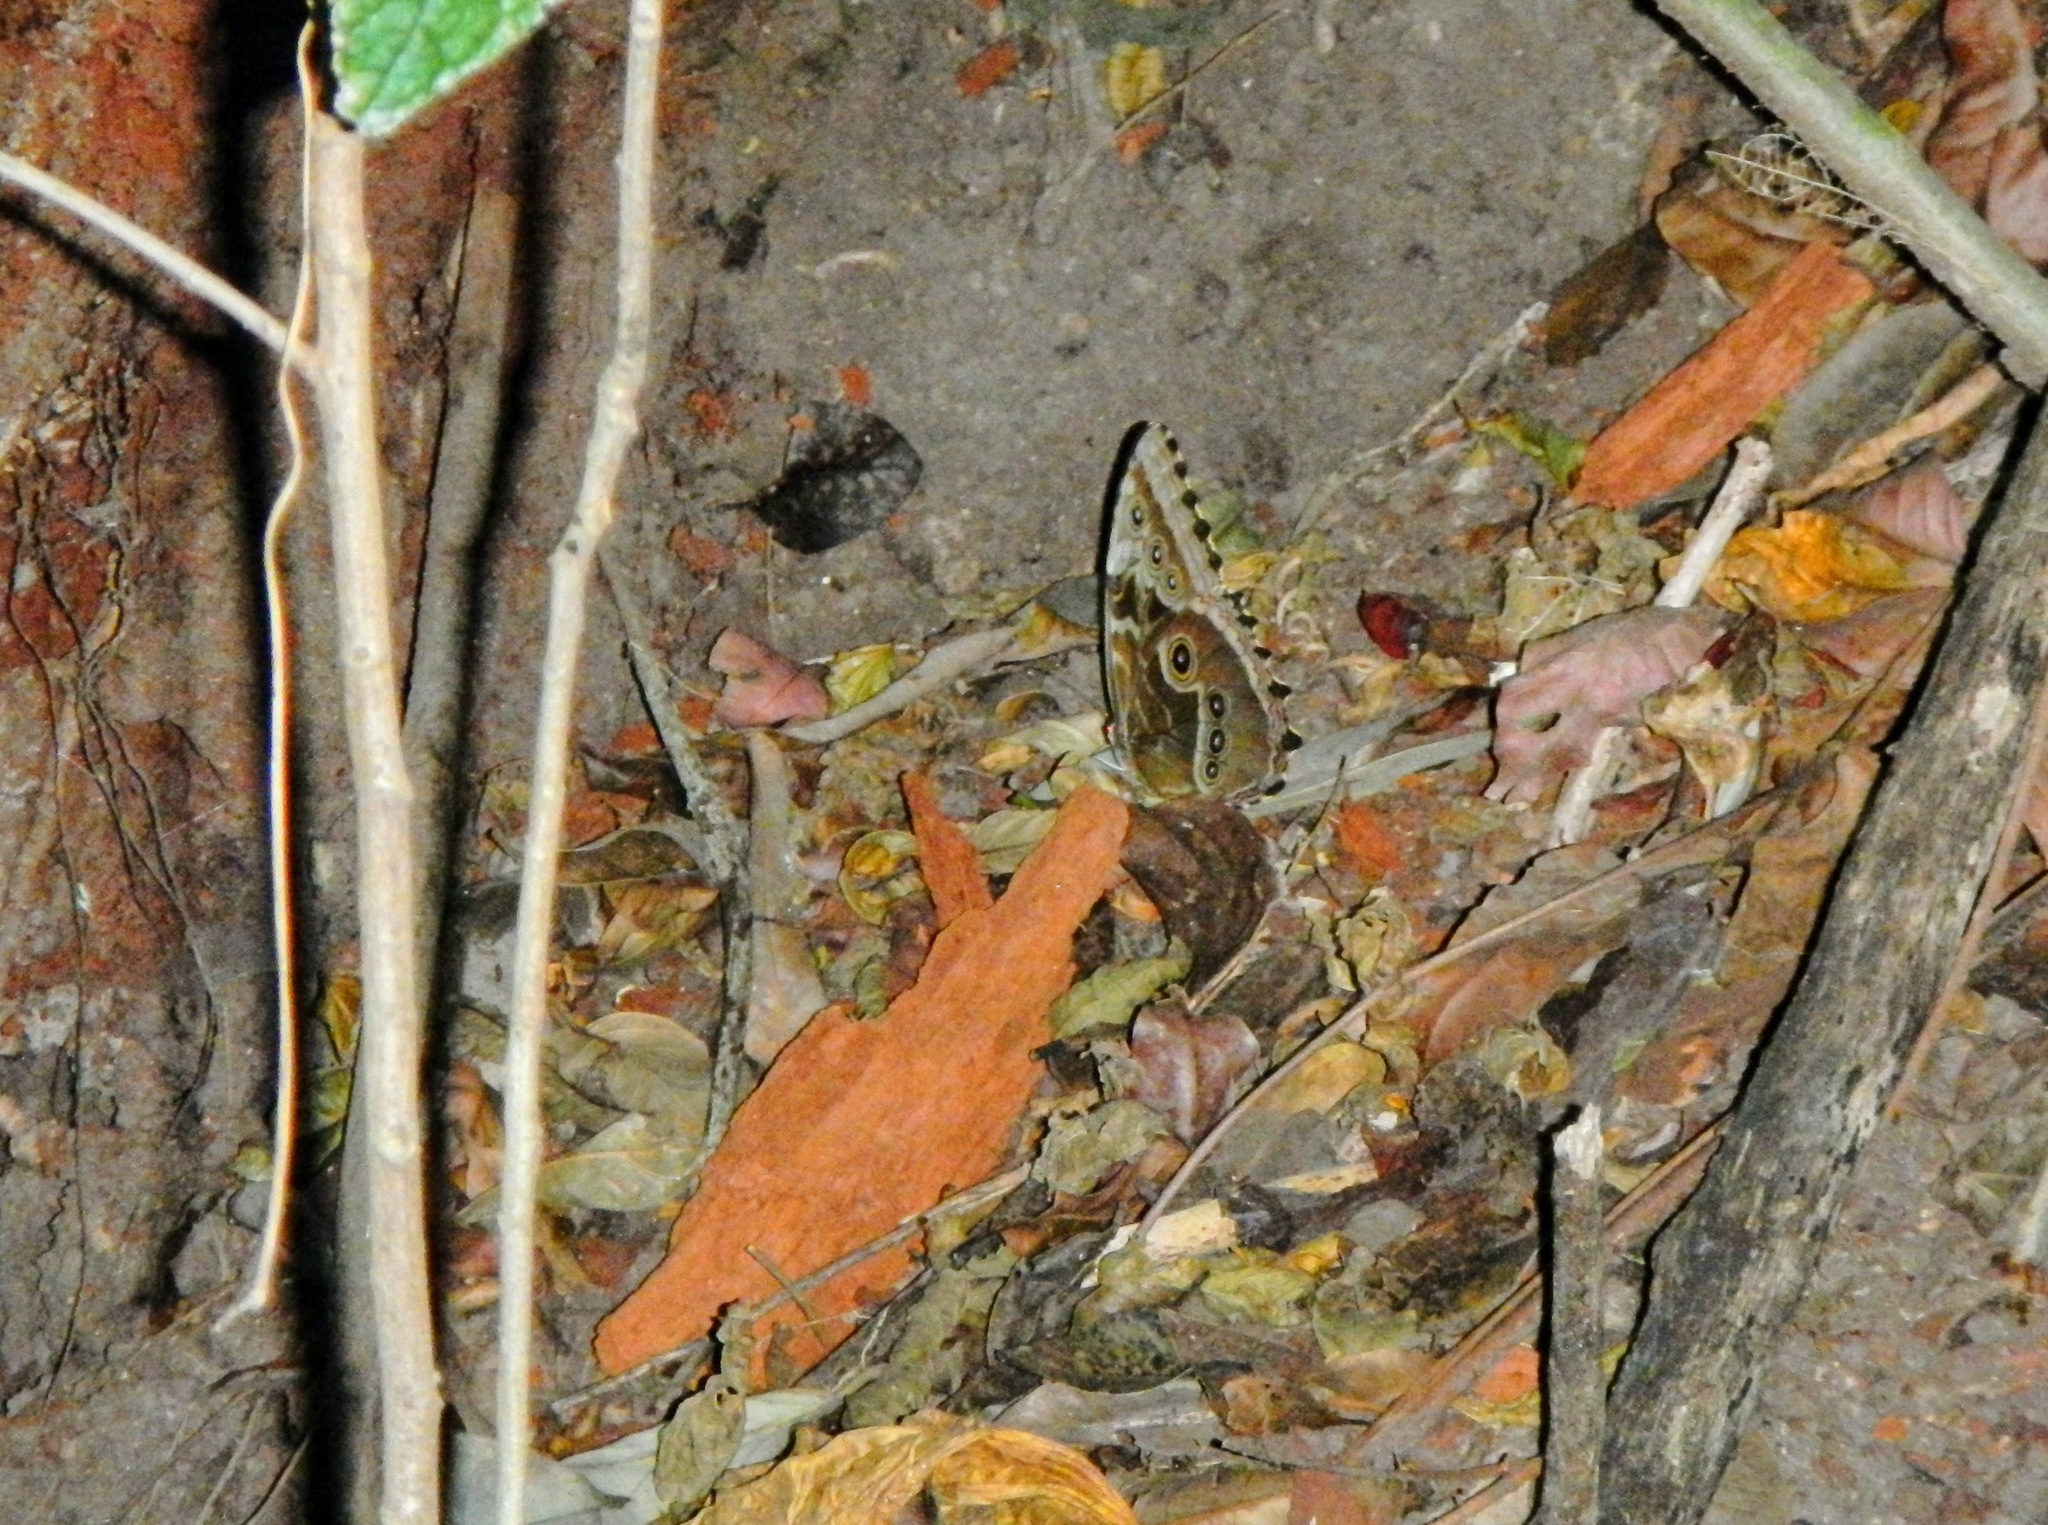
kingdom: Animalia
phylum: Arthropoda
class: Insecta
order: Lepidoptera
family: Nymphalidae
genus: Morpho
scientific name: Morpho helenor
